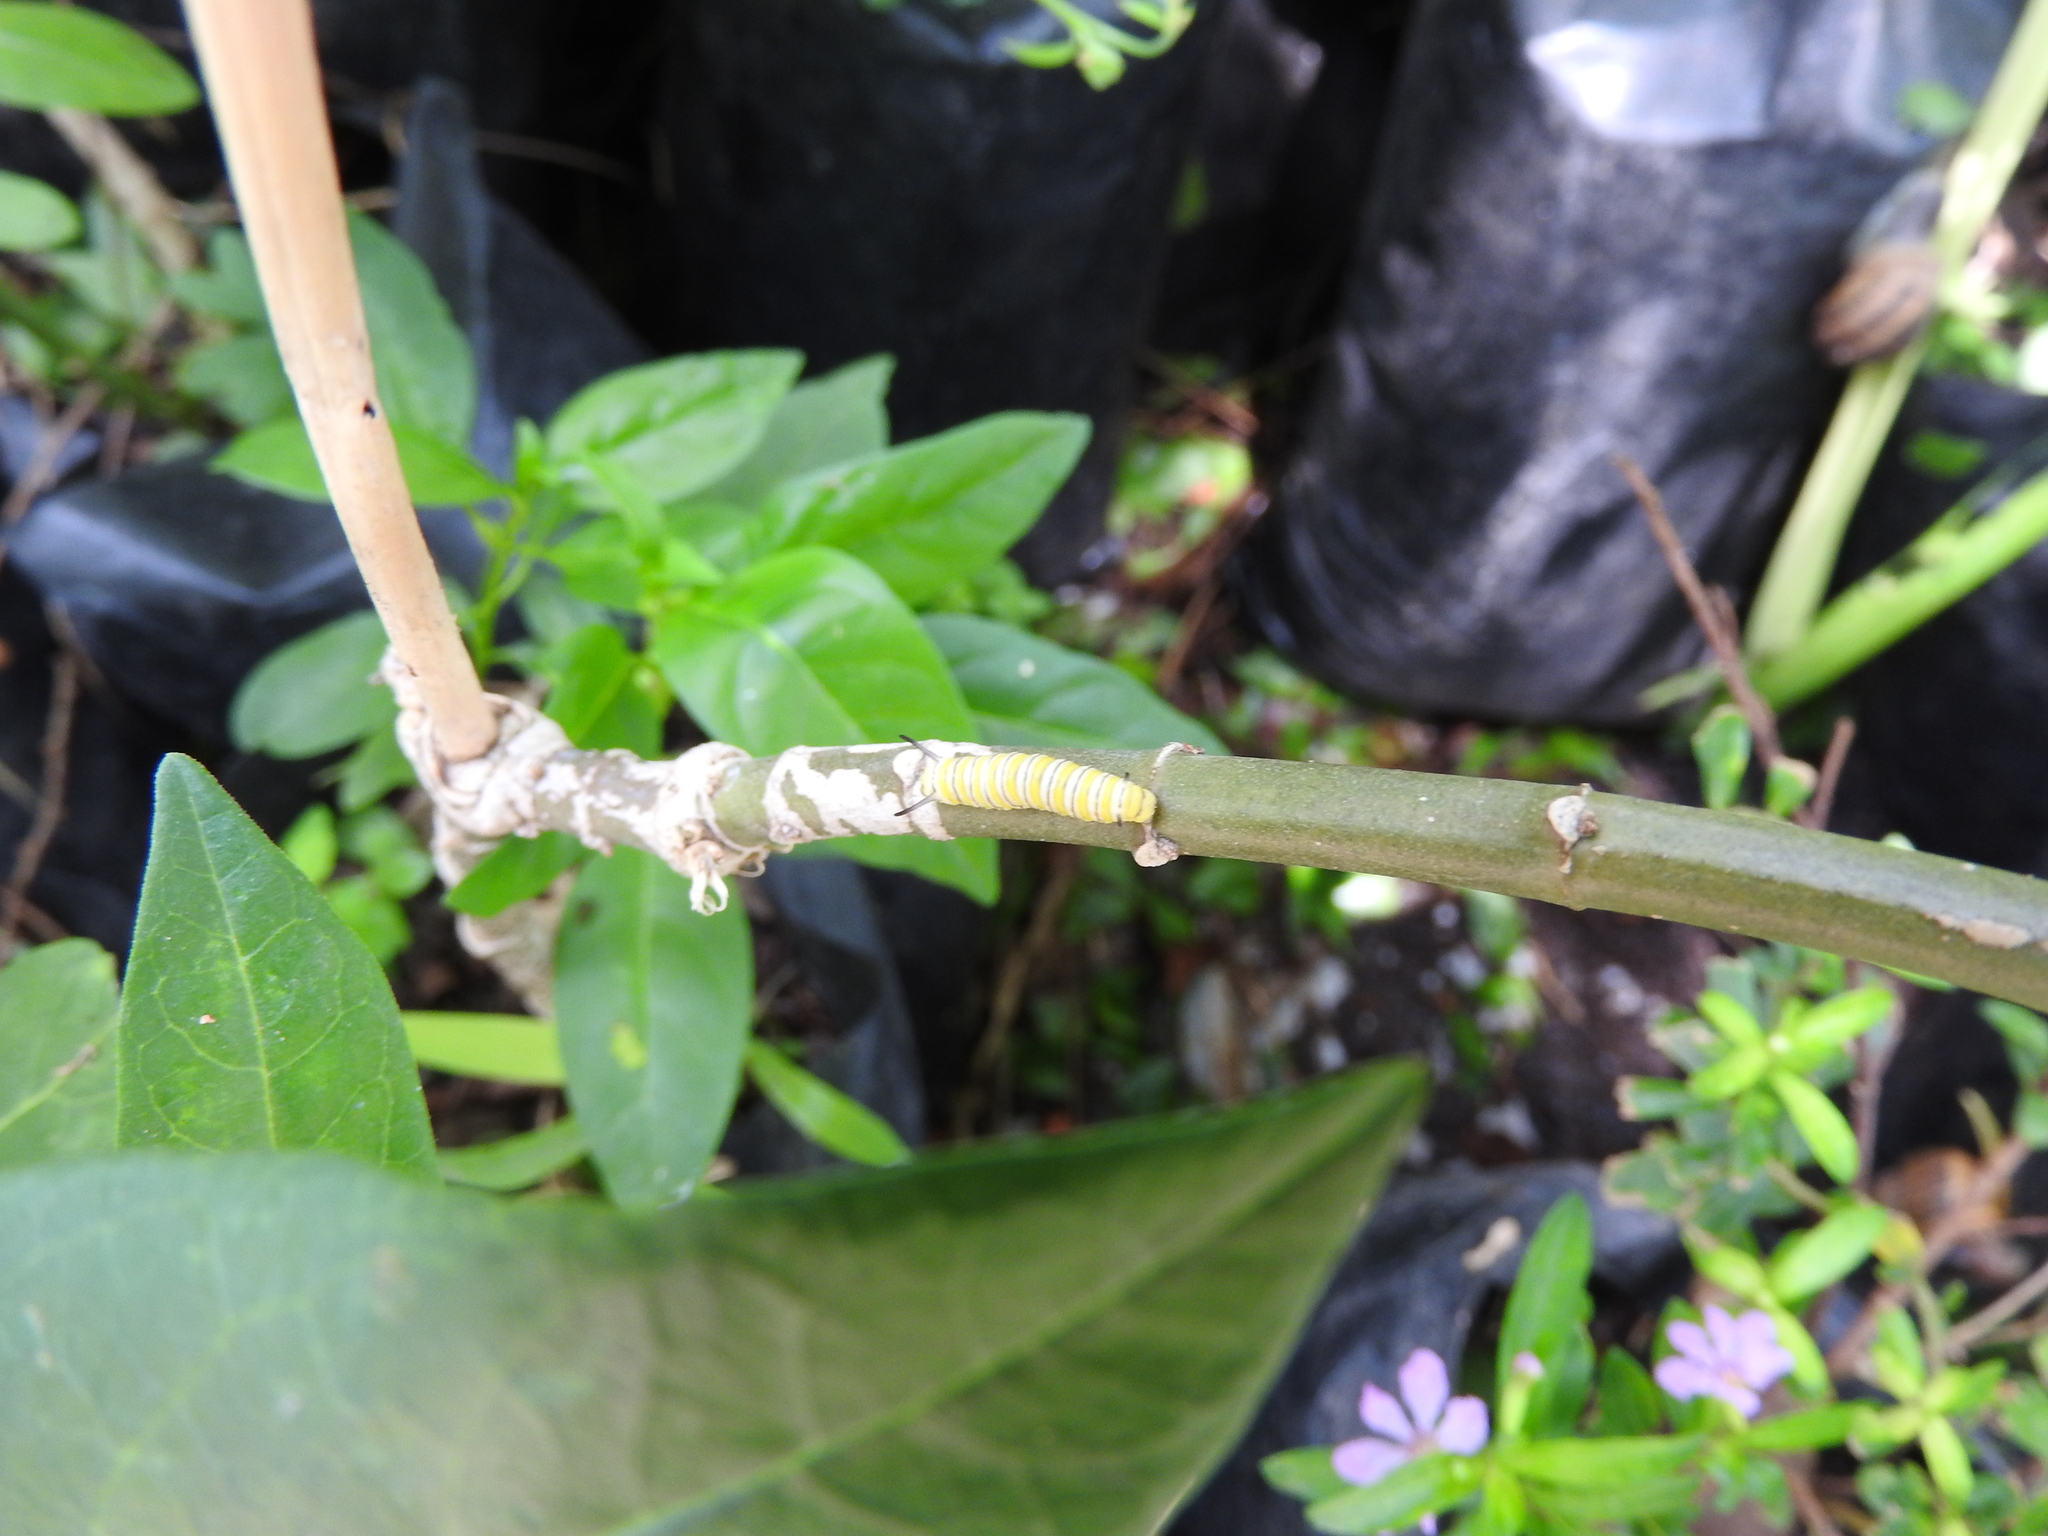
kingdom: Animalia
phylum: Arthropoda
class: Insecta
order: Lepidoptera
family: Nymphalidae
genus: Danaus
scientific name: Danaus plexippus
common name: Monarch
